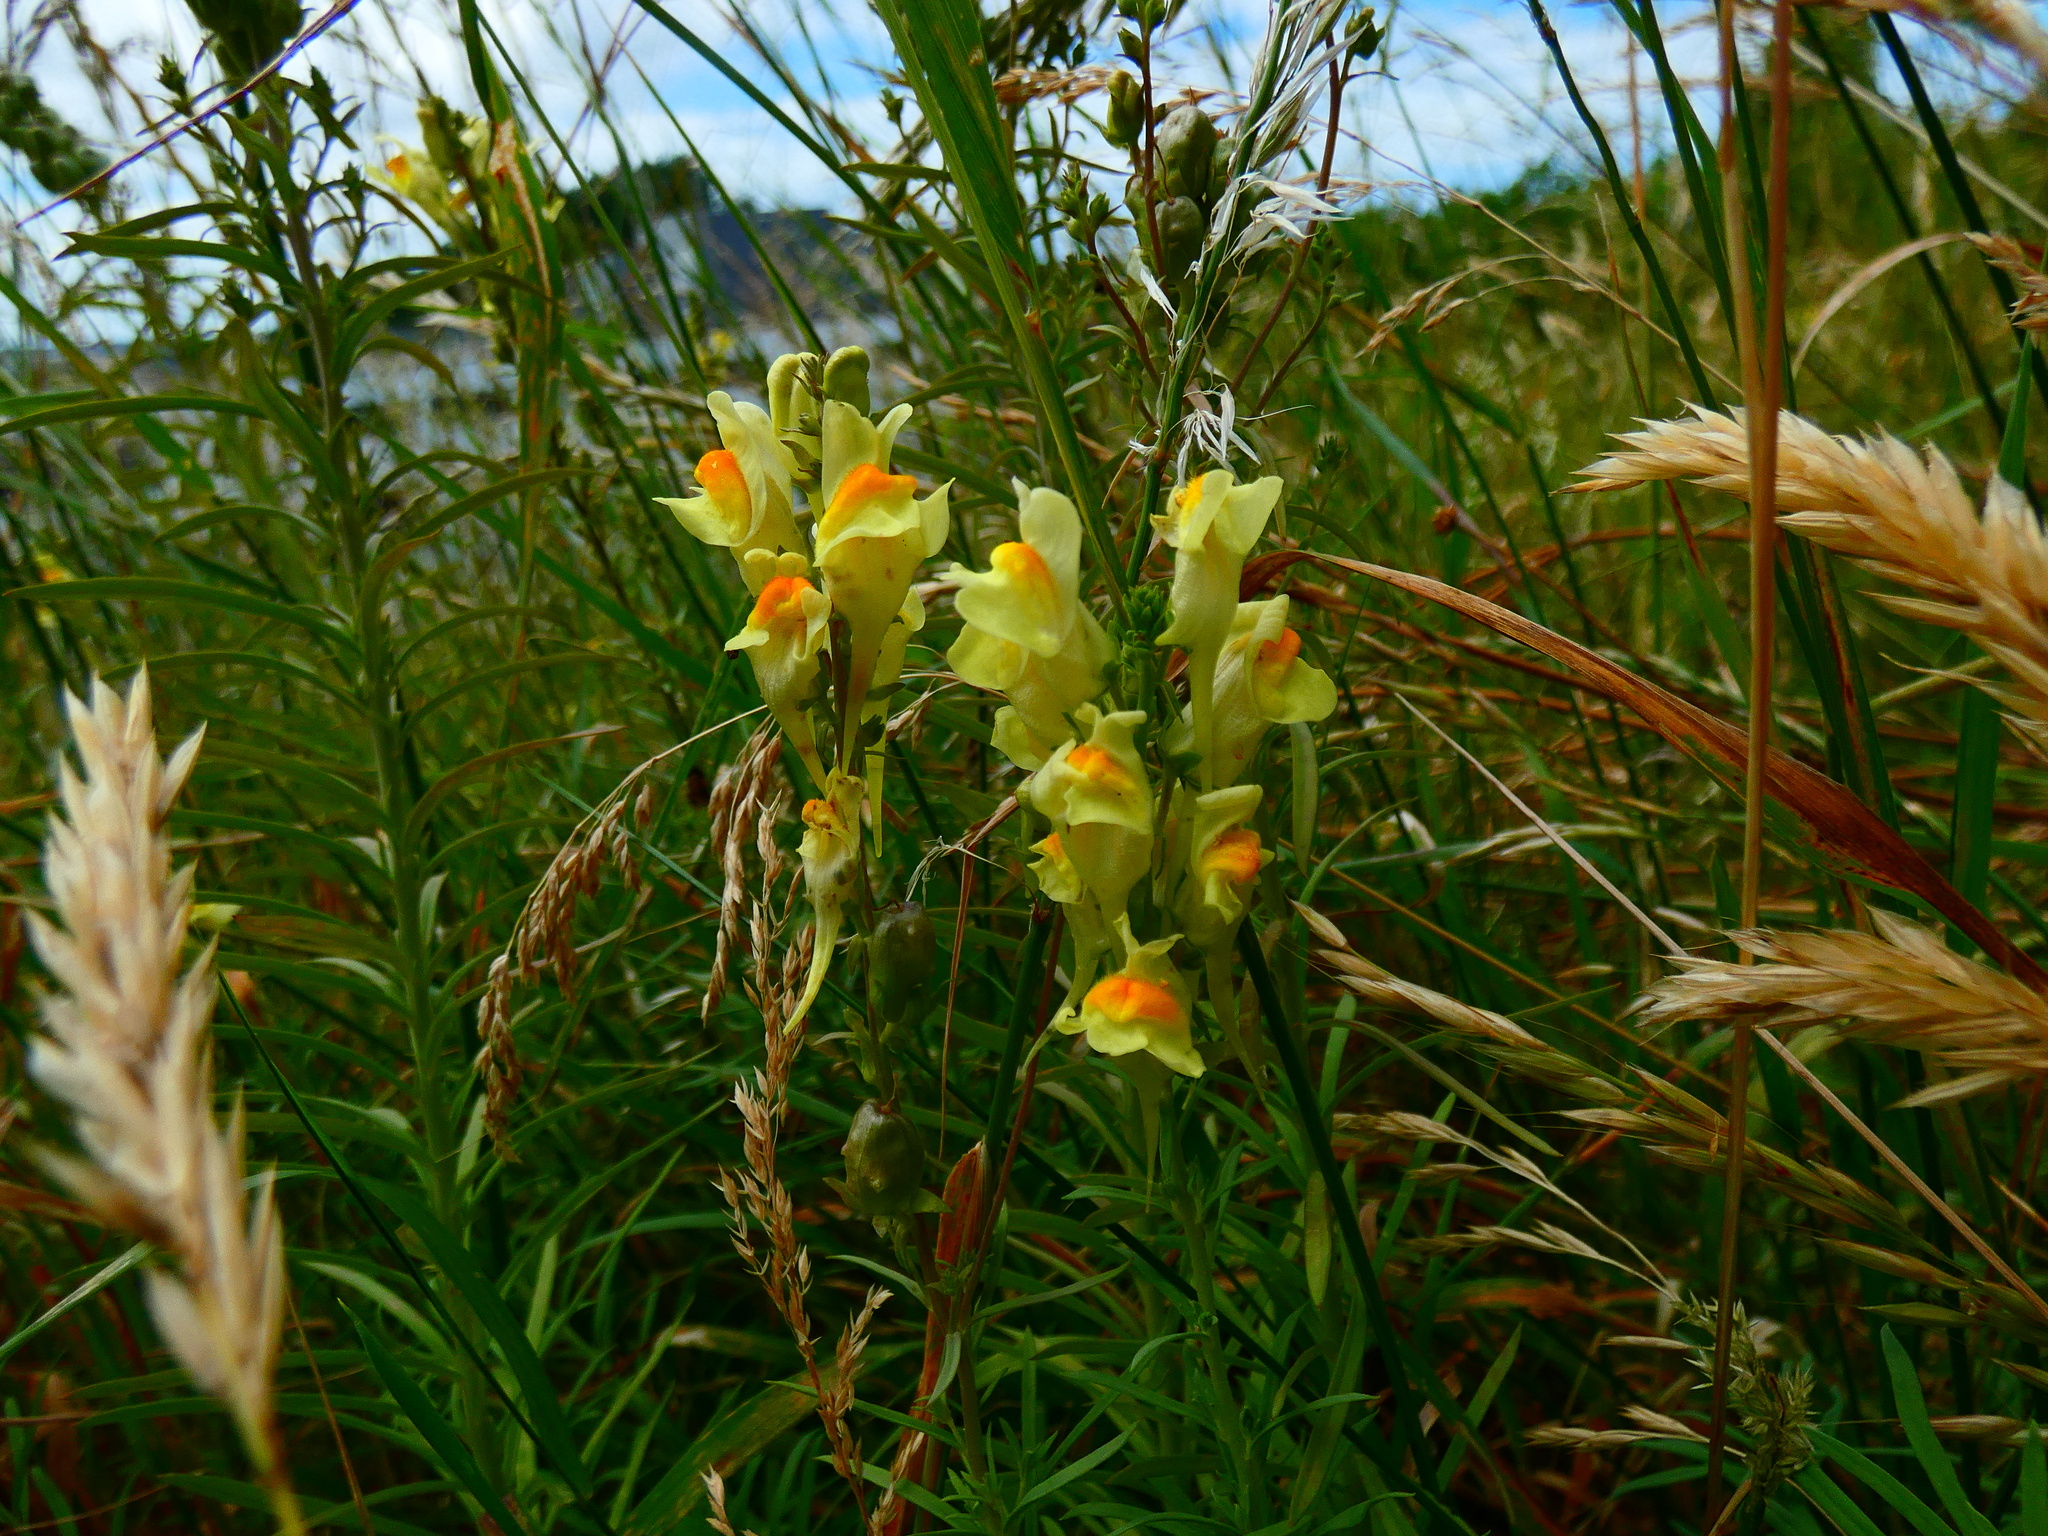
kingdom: Plantae
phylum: Tracheophyta
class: Magnoliopsida
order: Lamiales
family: Plantaginaceae
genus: Linaria
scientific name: Linaria vulgaris
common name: Butter and eggs
